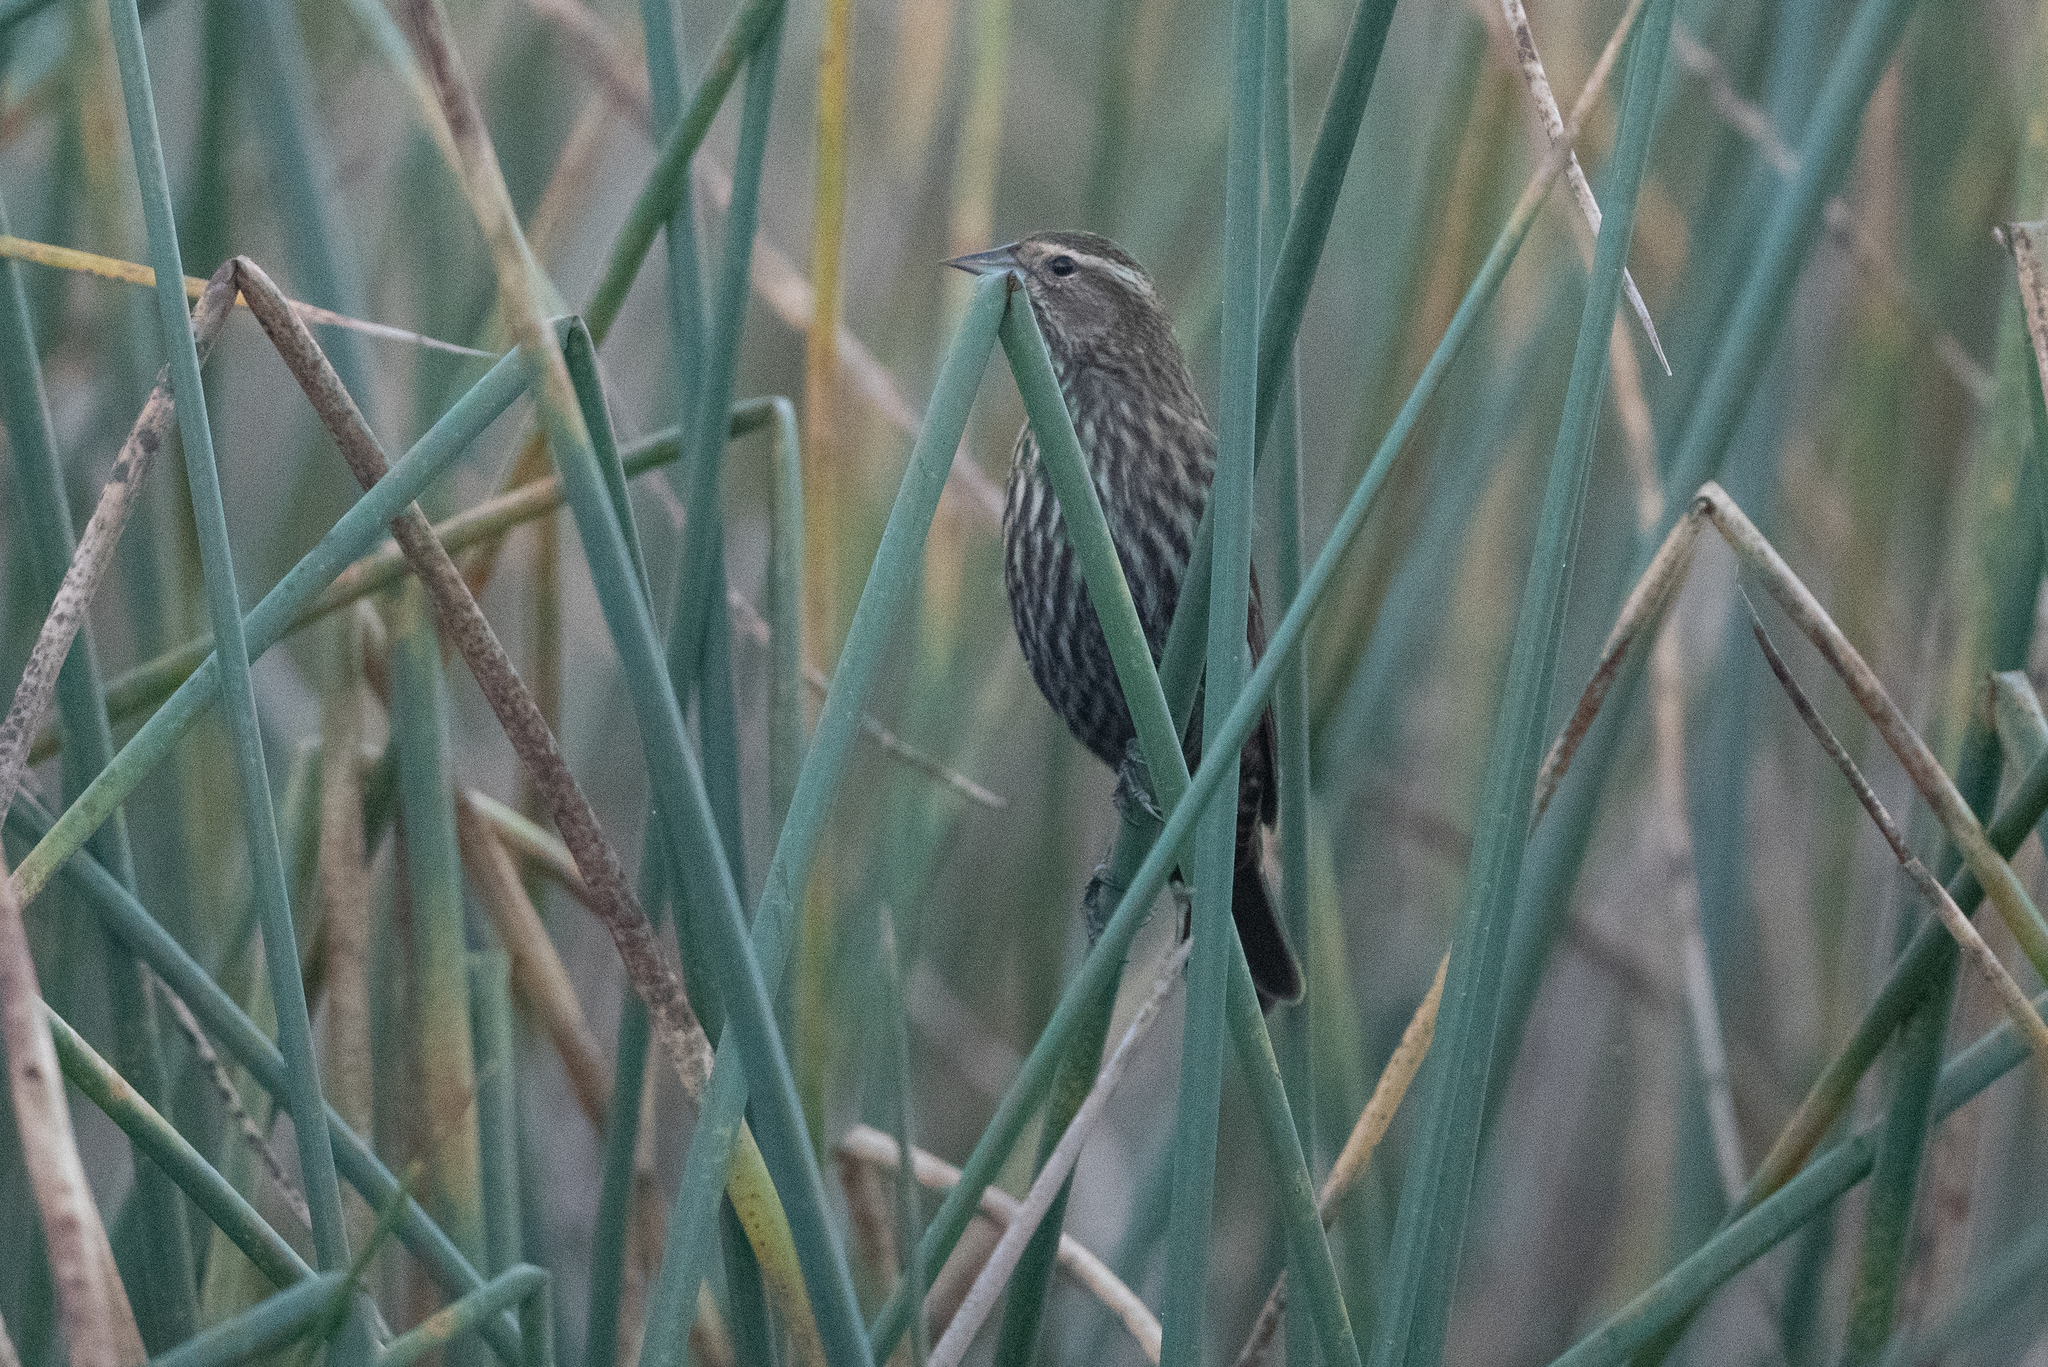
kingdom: Animalia
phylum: Chordata
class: Aves
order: Passeriformes
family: Icteridae
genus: Agelaius
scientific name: Agelaius phoeniceus
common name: Red-winged blackbird
